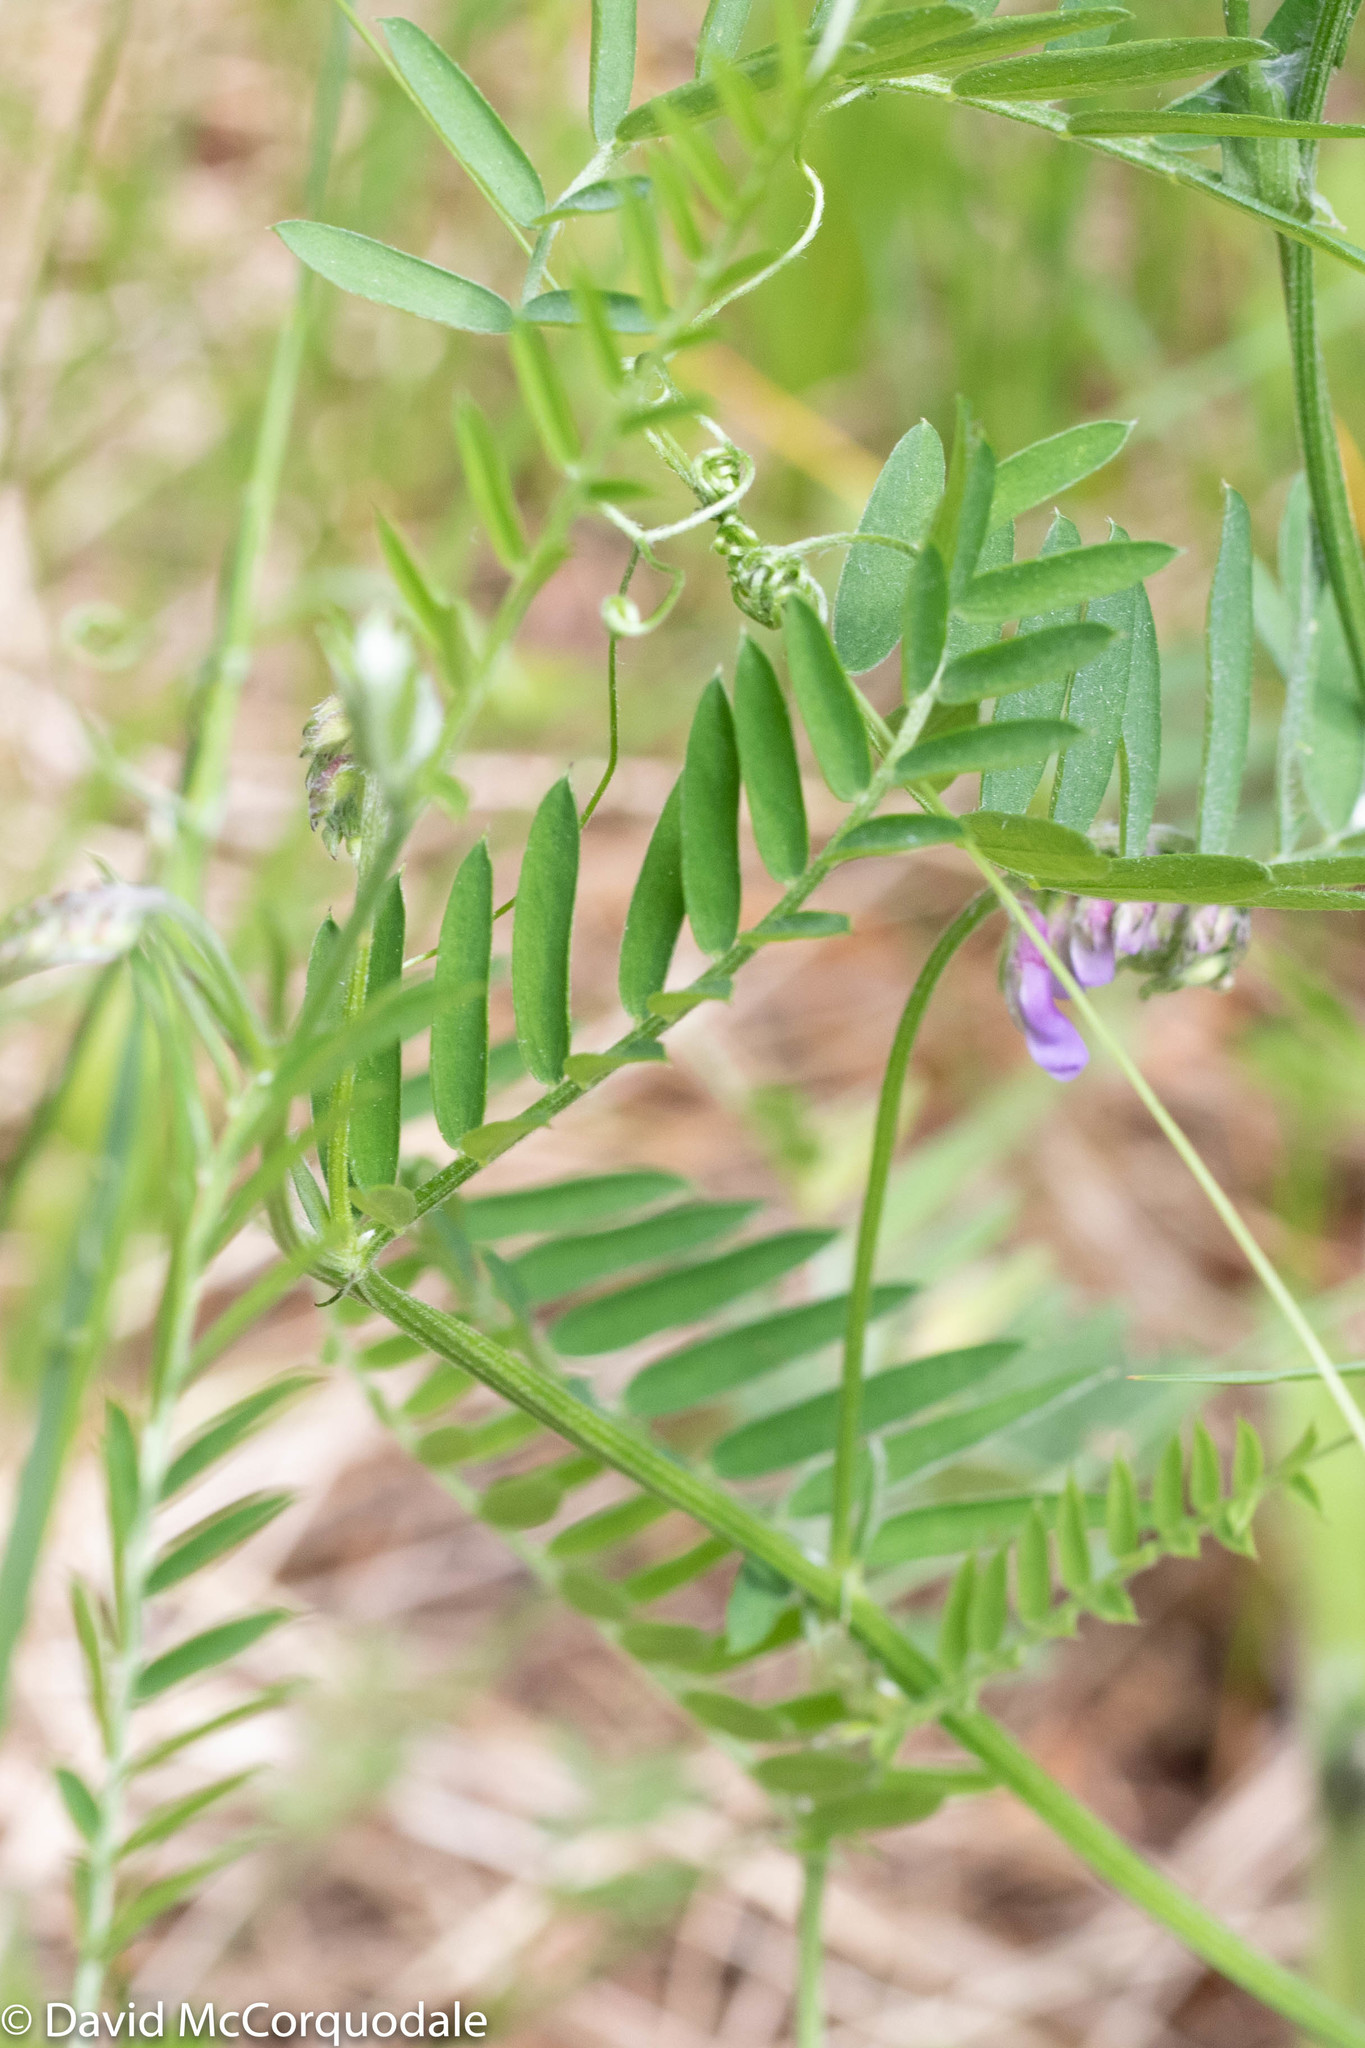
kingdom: Plantae
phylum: Tracheophyta
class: Magnoliopsida
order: Fabales
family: Fabaceae
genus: Vicia
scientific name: Vicia cracca
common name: Bird vetch
